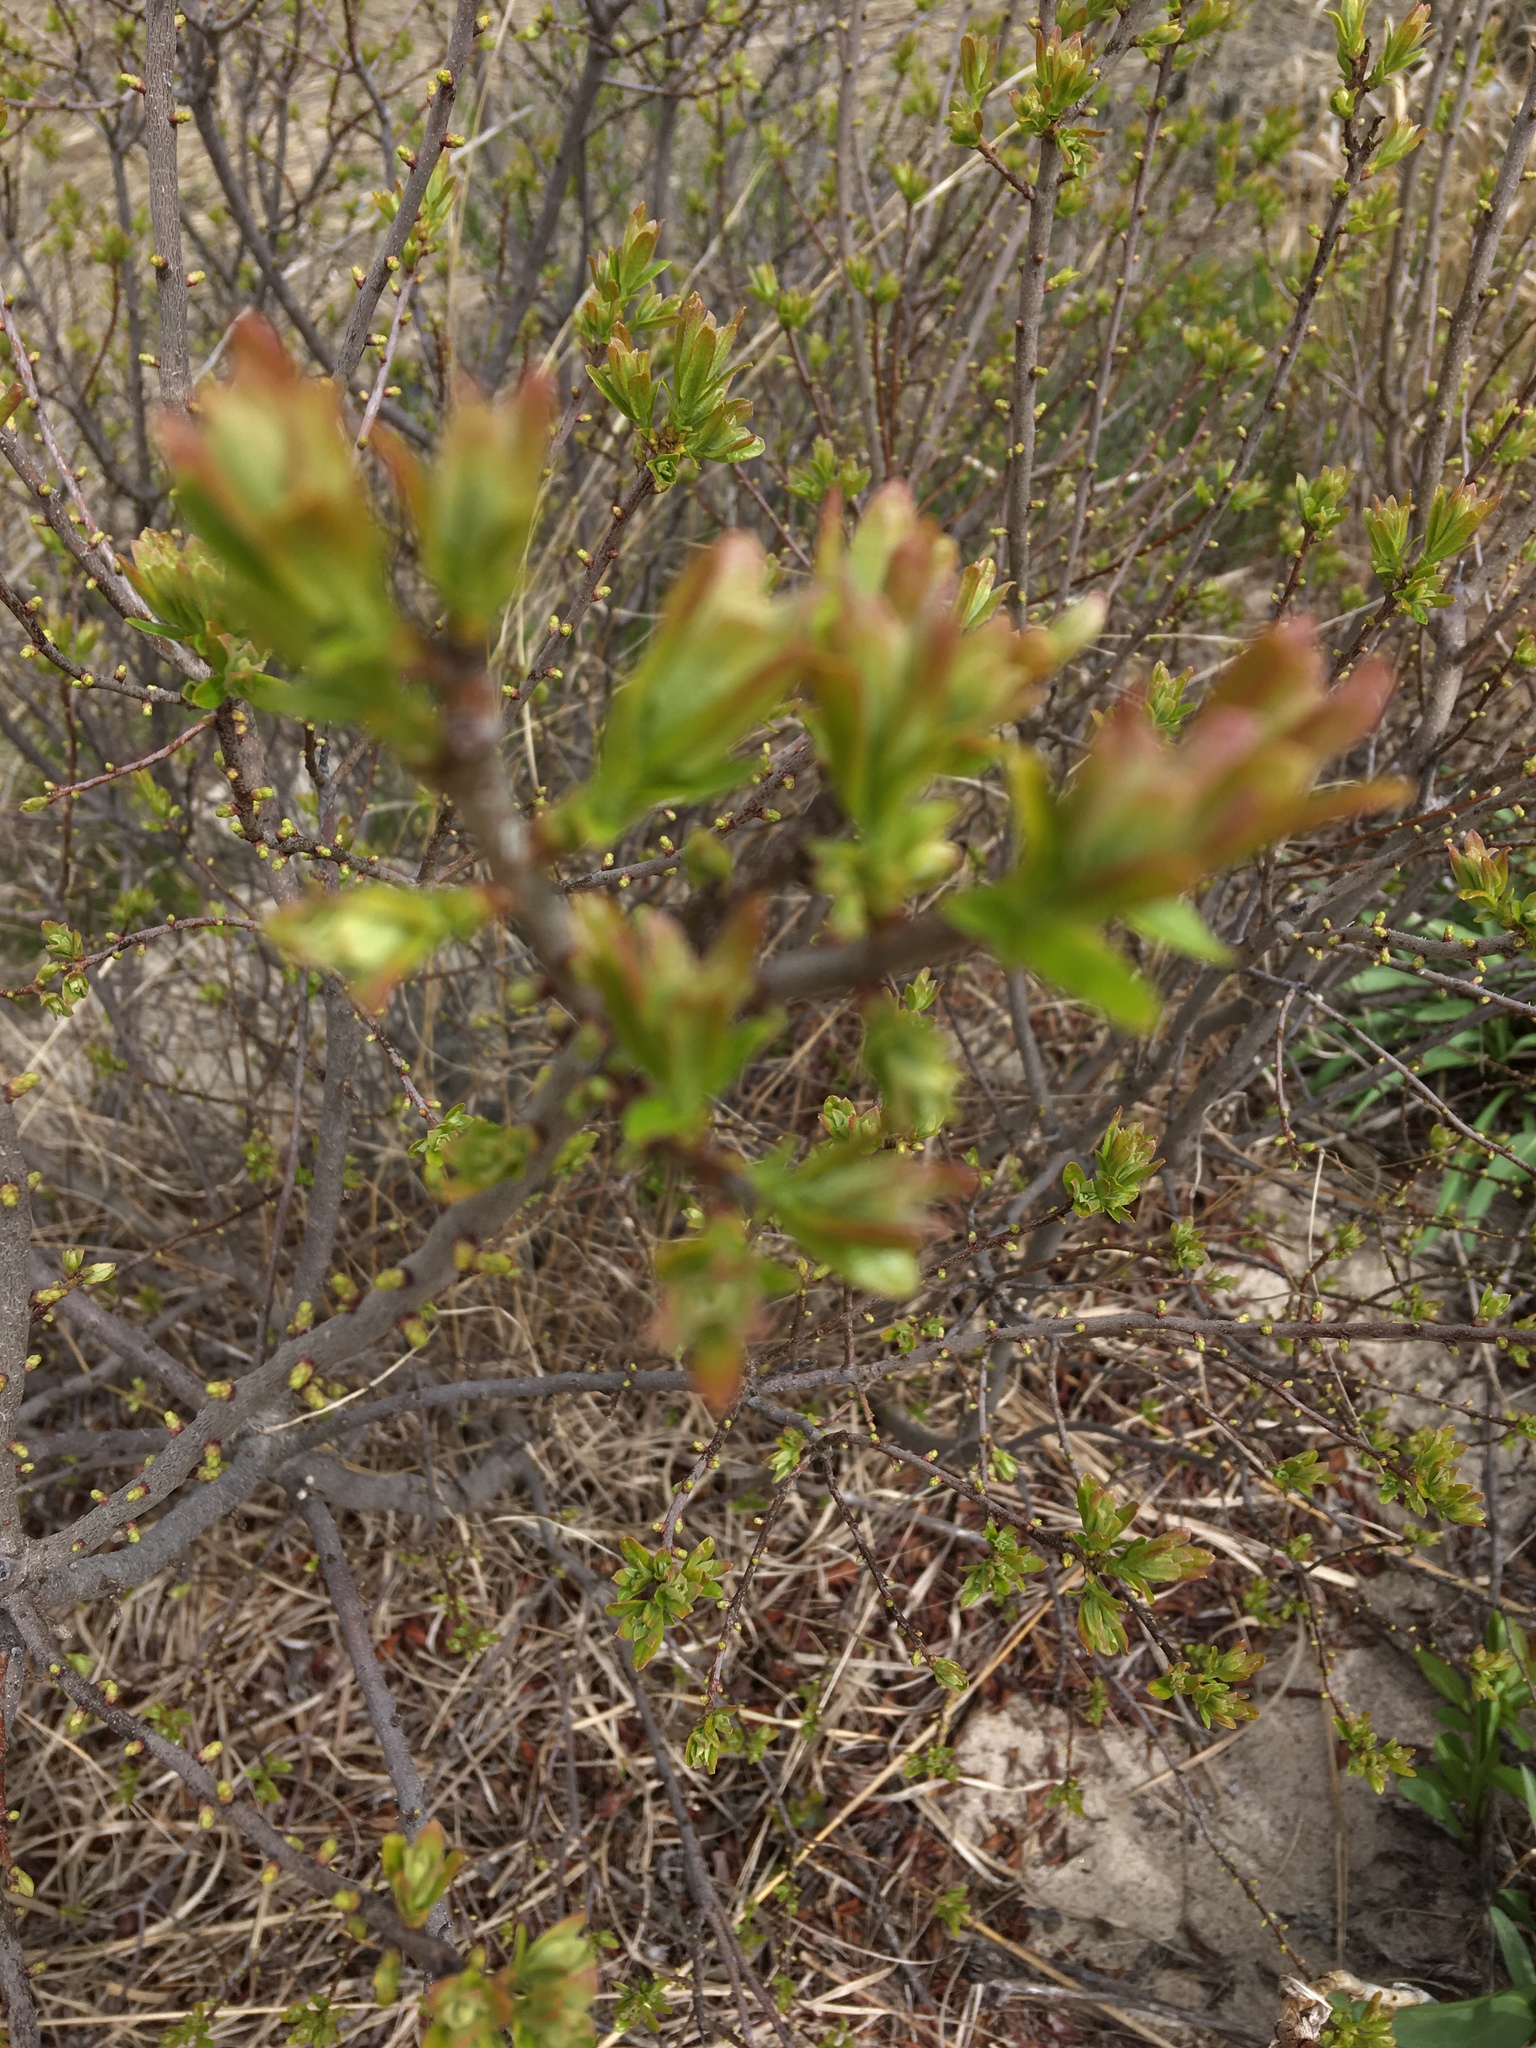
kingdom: Plantae
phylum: Tracheophyta
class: Magnoliopsida
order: Sapindales
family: Anacardiaceae
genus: Rhus
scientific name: Rhus typhina
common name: Staghorn sumac
